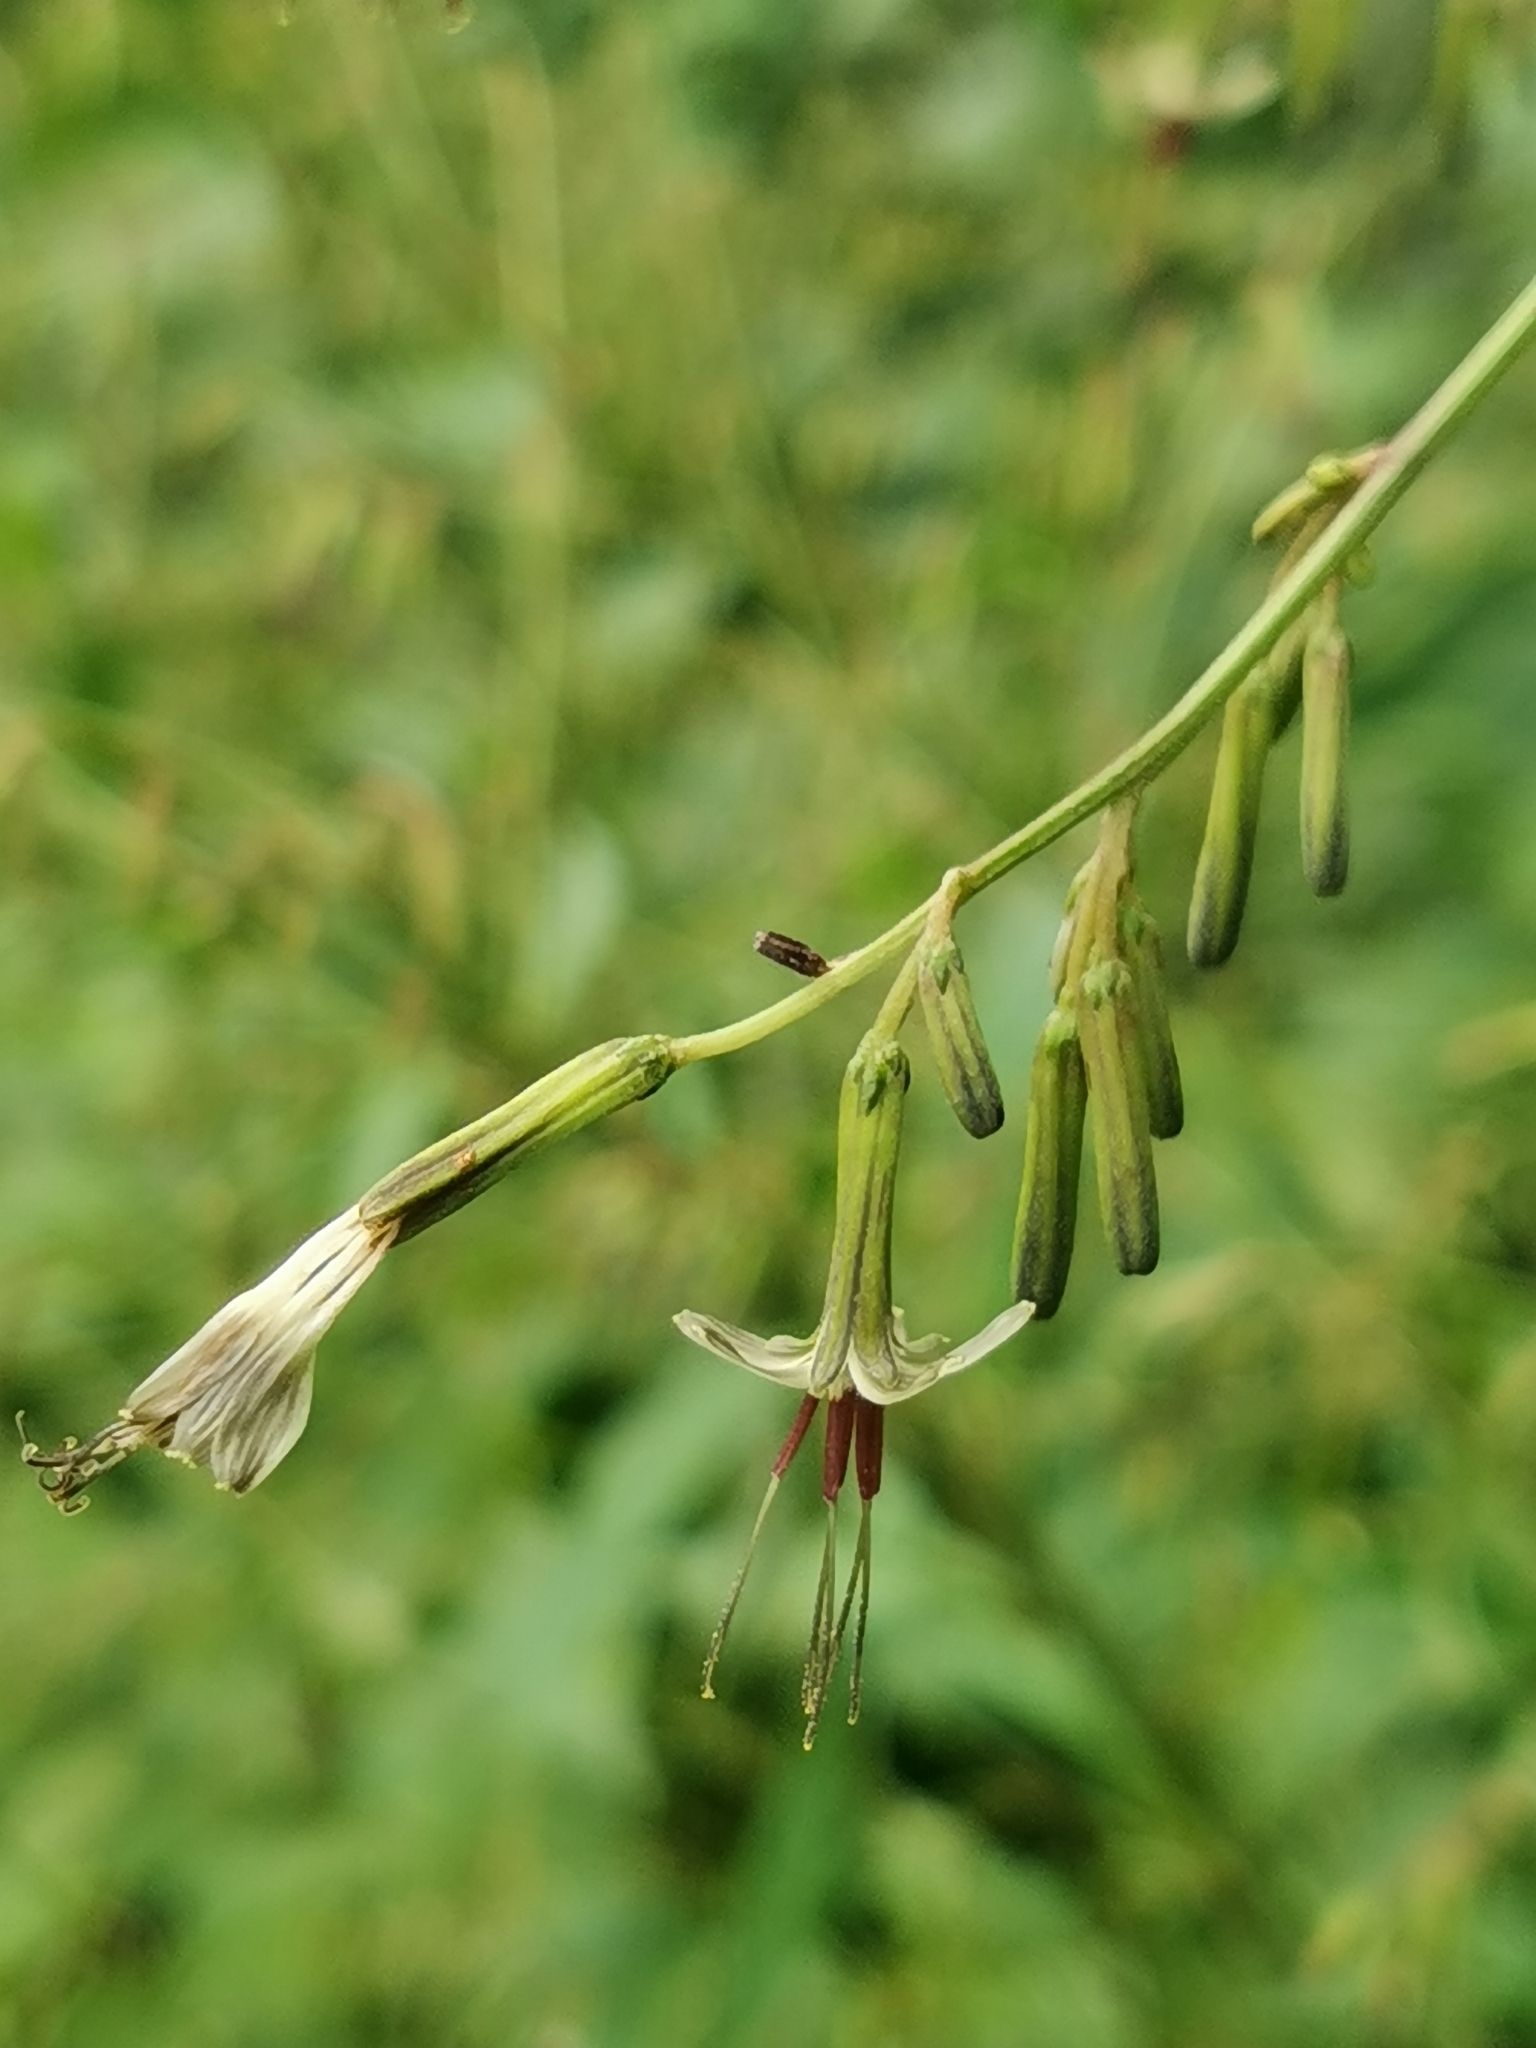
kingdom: Plantae
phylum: Tracheophyta
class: Magnoliopsida
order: Asterales
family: Asteraceae
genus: Nabalus
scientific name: Nabalus tatarinowii
